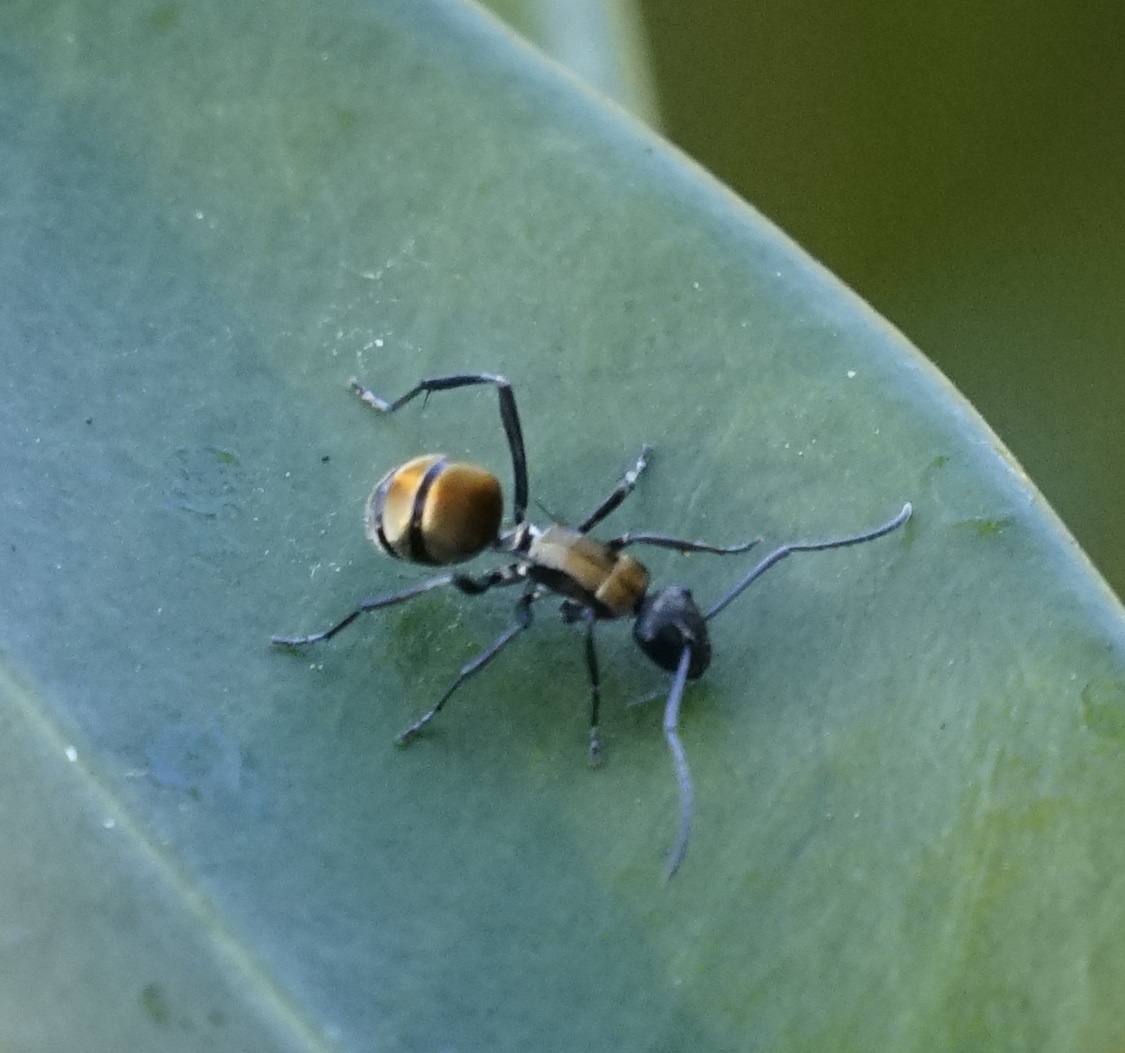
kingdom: Animalia
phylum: Arthropoda
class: Insecta
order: Hymenoptera
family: Formicidae
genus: Polyrhachis
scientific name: Polyrhachis ammon
